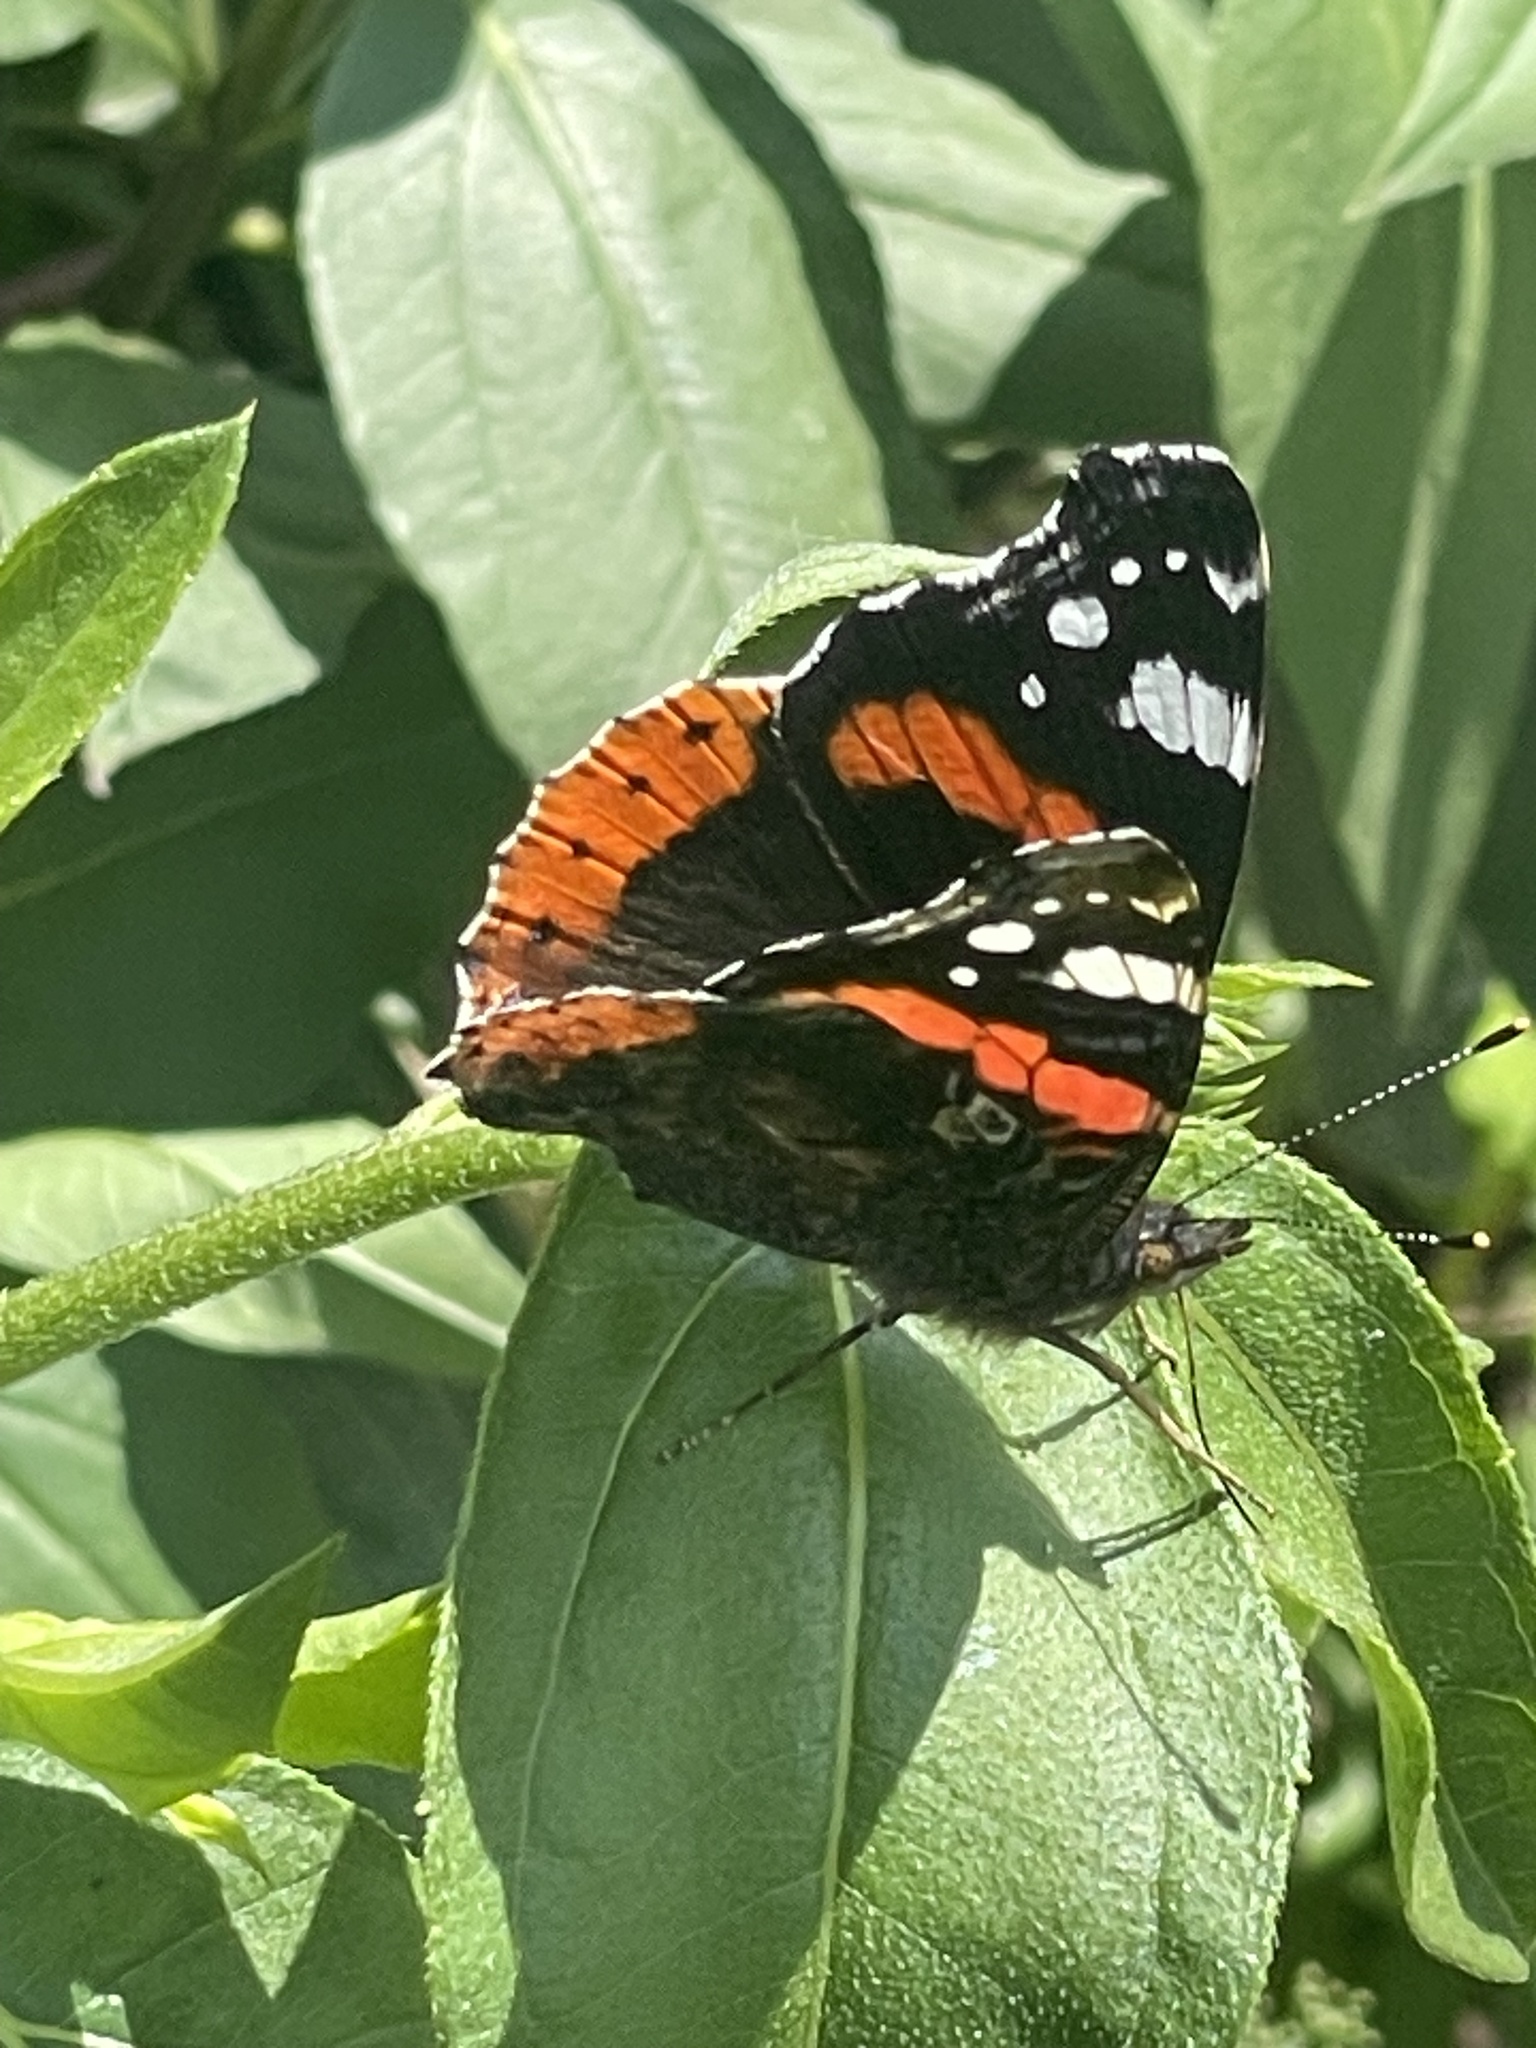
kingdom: Animalia
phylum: Arthropoda
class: Insecta
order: Lepidoptera
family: Nymphalidae
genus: Vanessa
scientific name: Vanessa atalanta
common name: Red admiral
